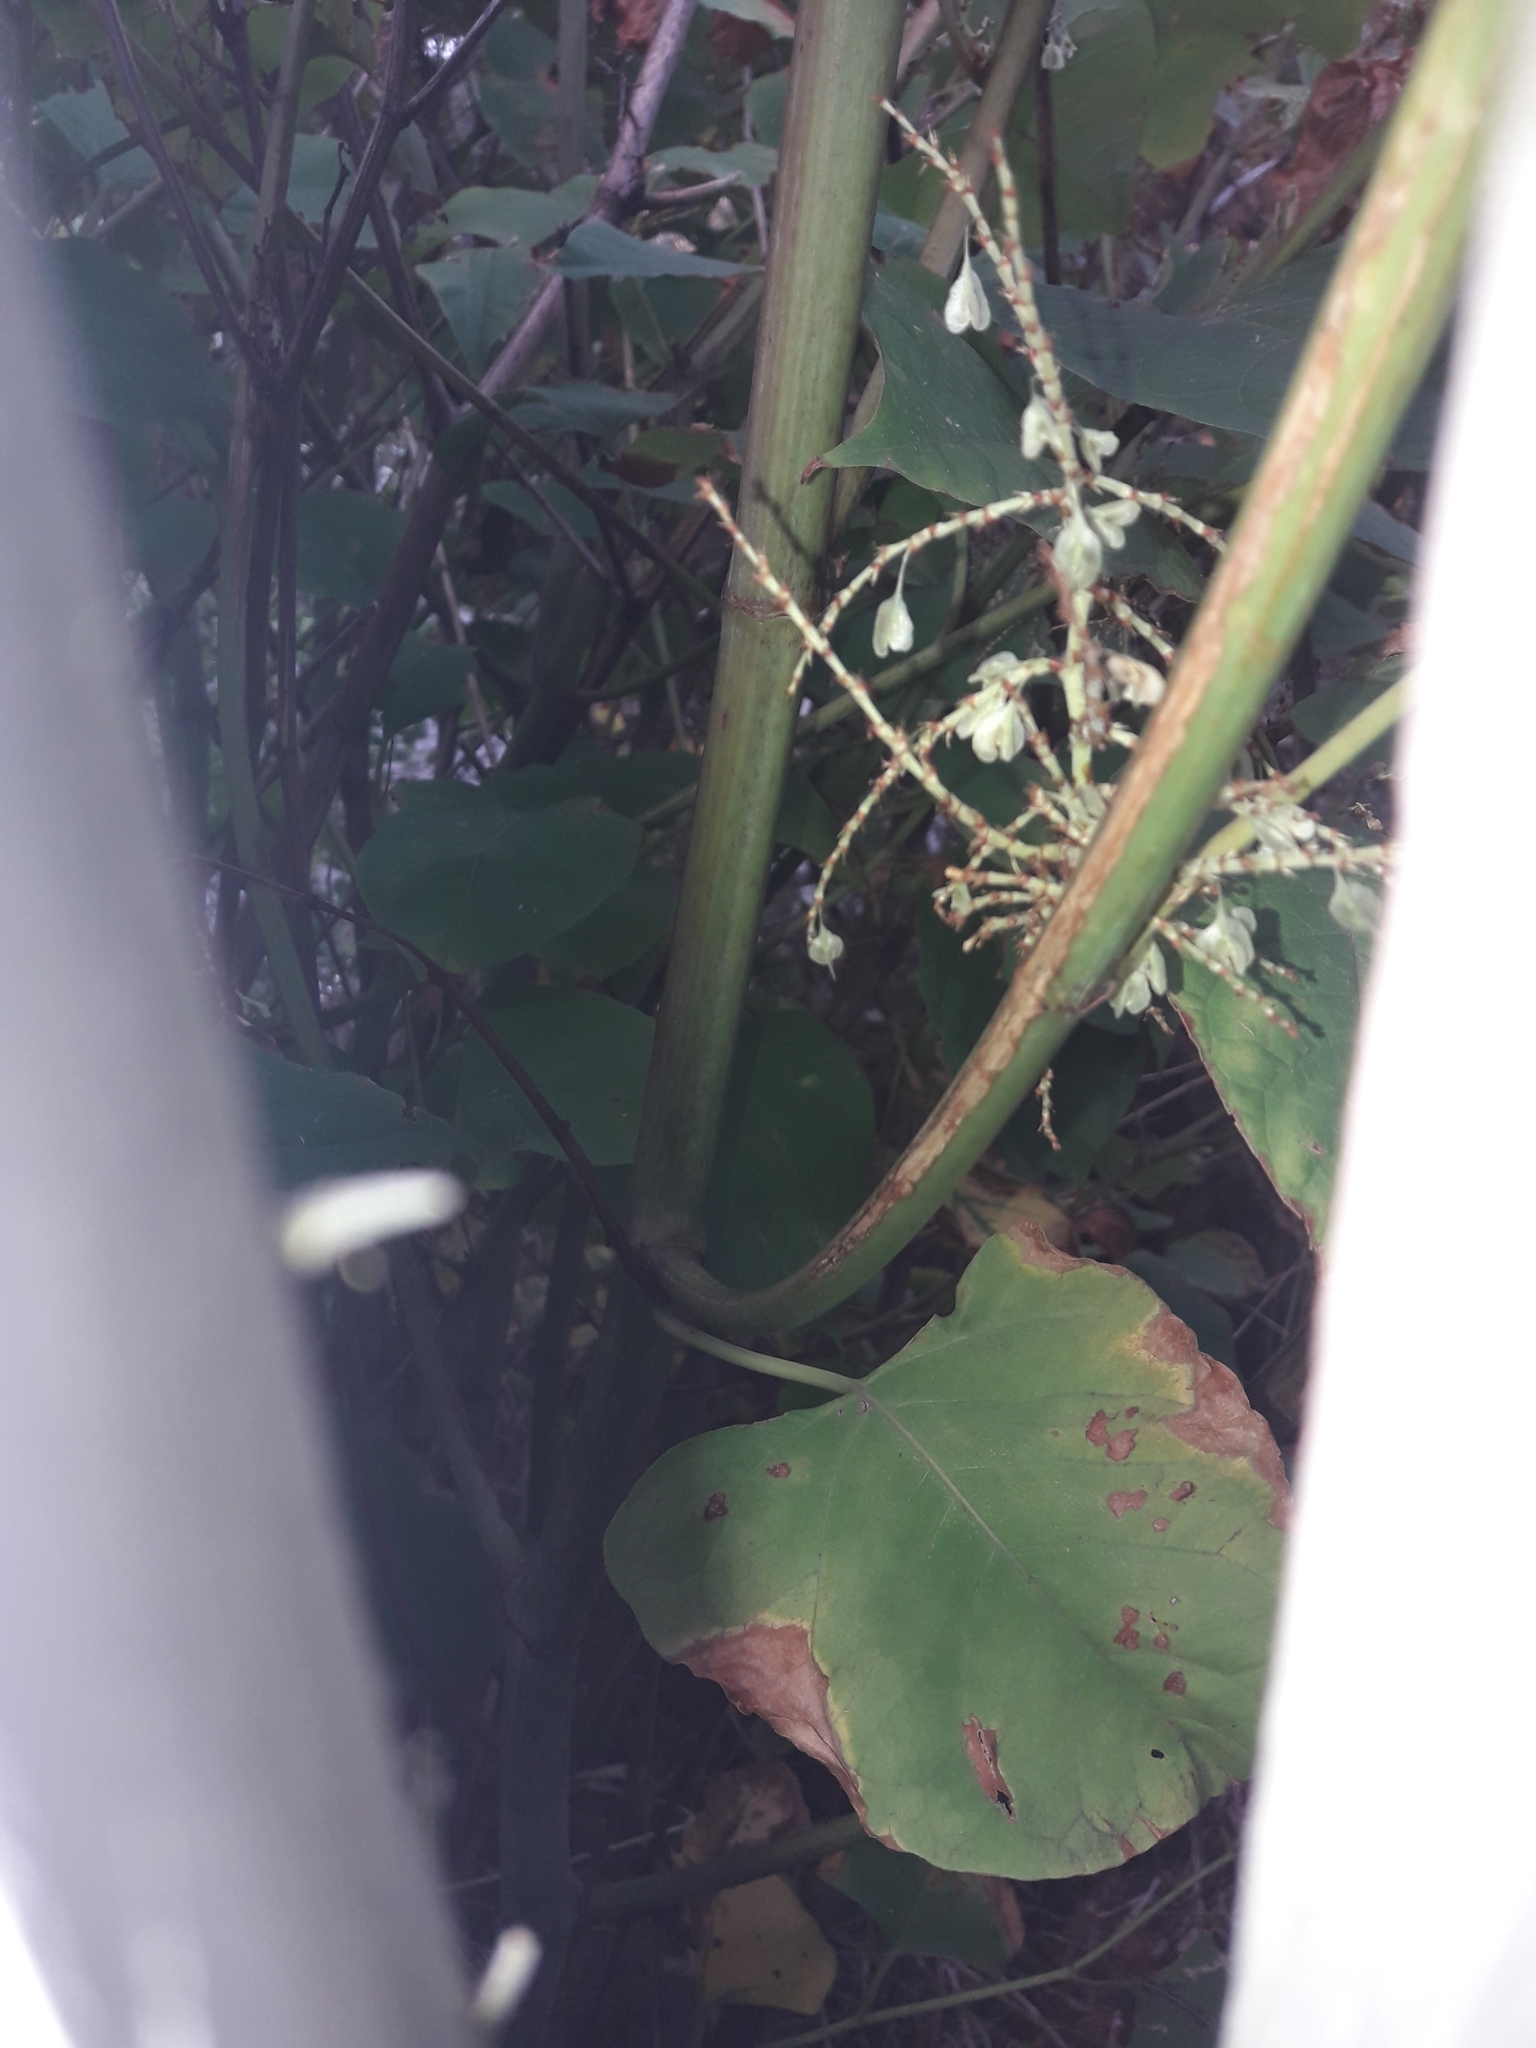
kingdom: Plantae
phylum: Tracheophyta
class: Magnoliopsida
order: Caryophyllales
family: Polygonaceae
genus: Reynoutria
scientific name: Reynoutria japonica
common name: Japanese knotweed
